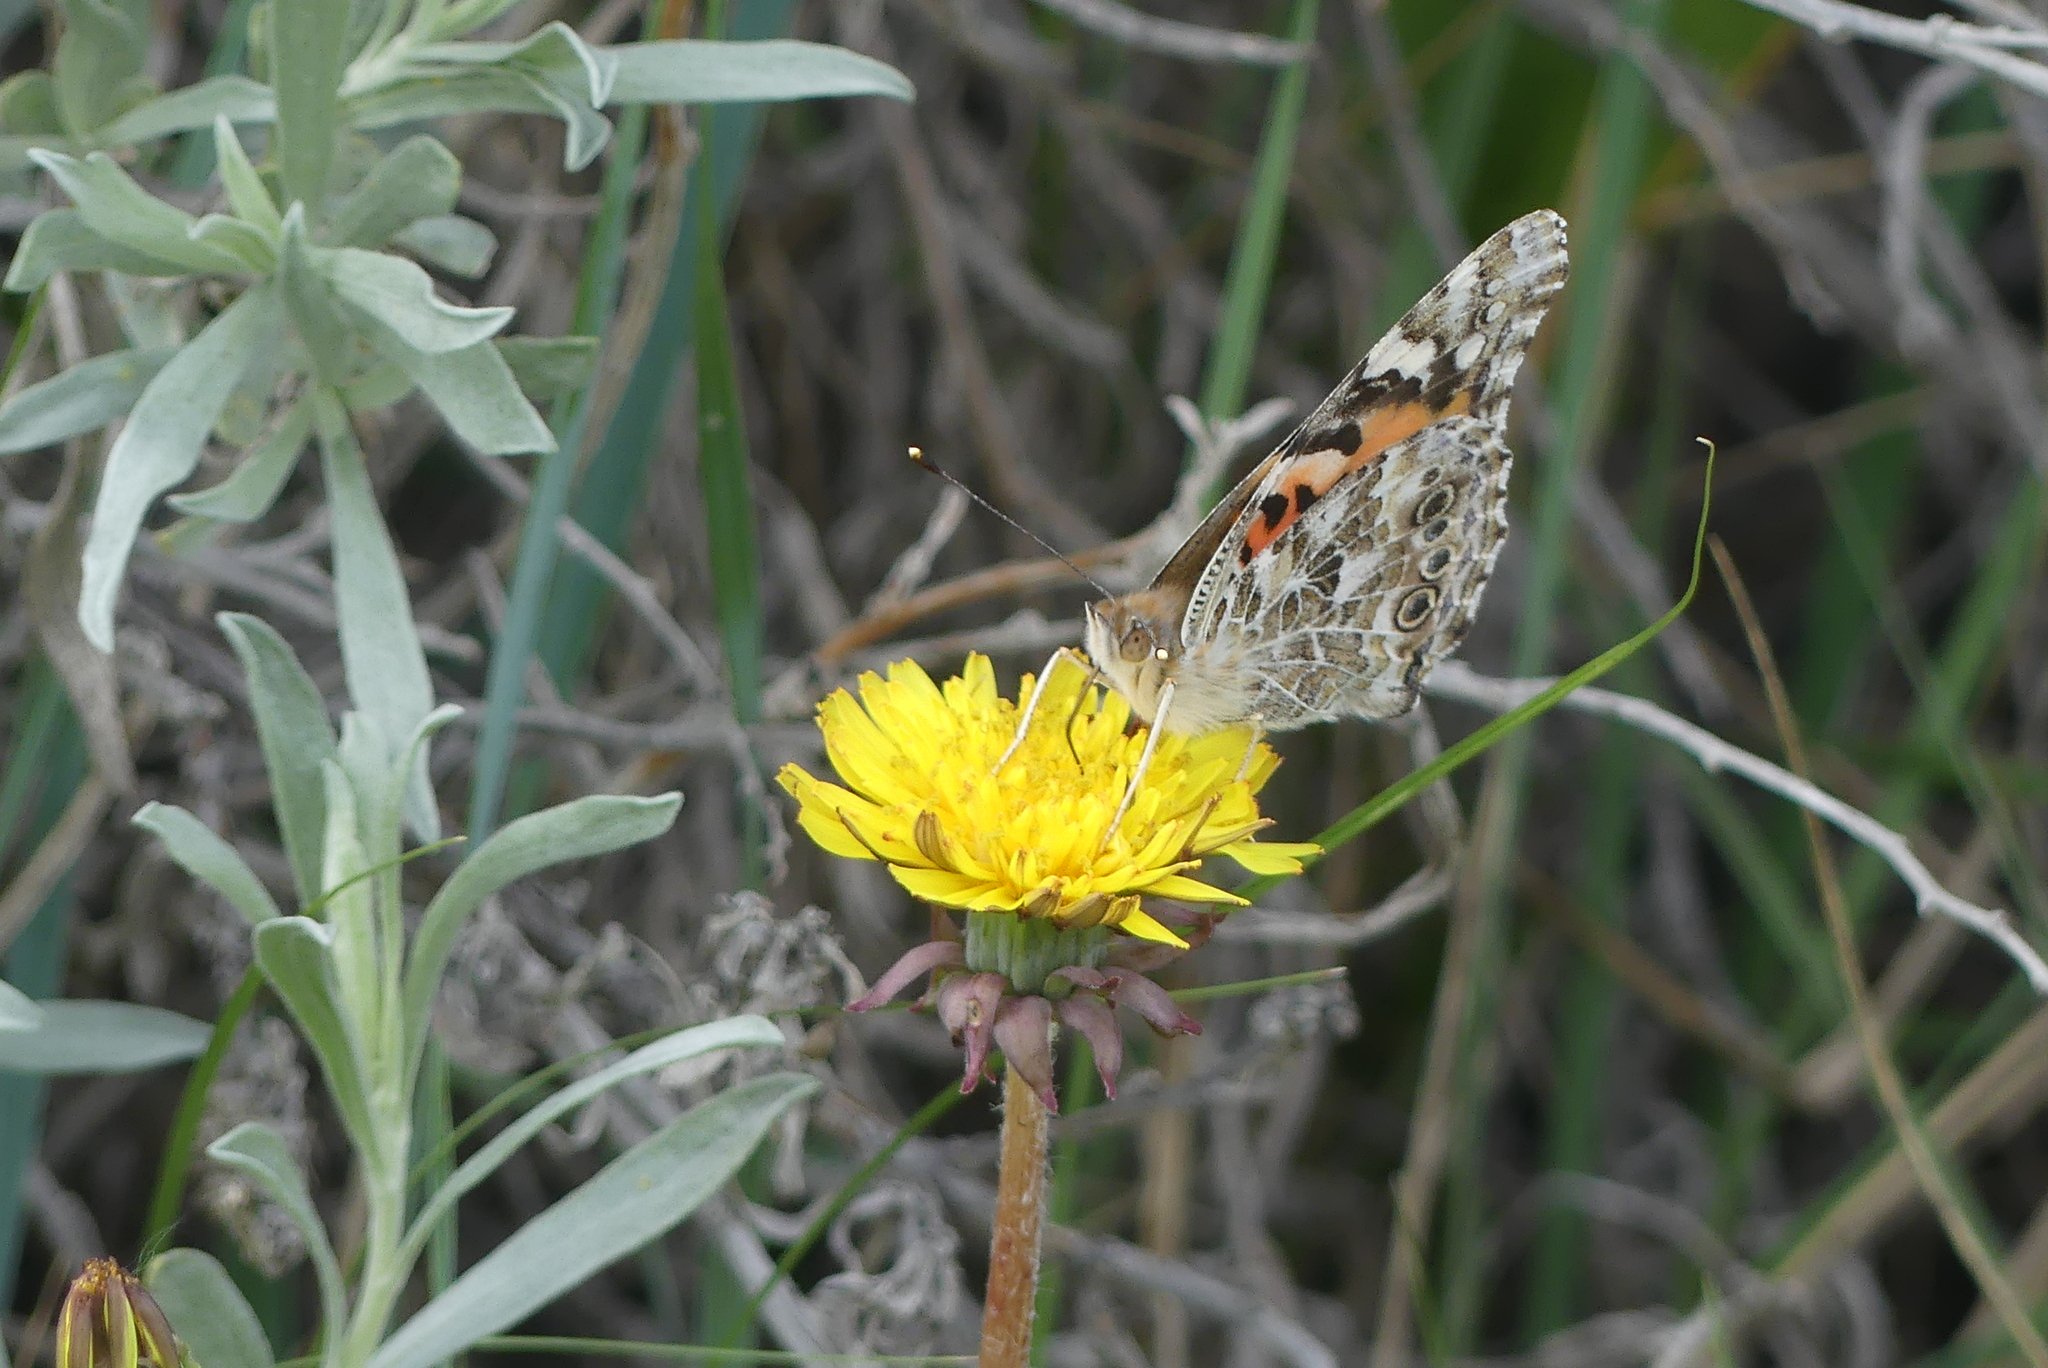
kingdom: Animalia
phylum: Arthropoda
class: Insecta
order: Lepidoptera
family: Nymphalidae
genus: Vanessa
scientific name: Vanessa cardui
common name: Painted lady
